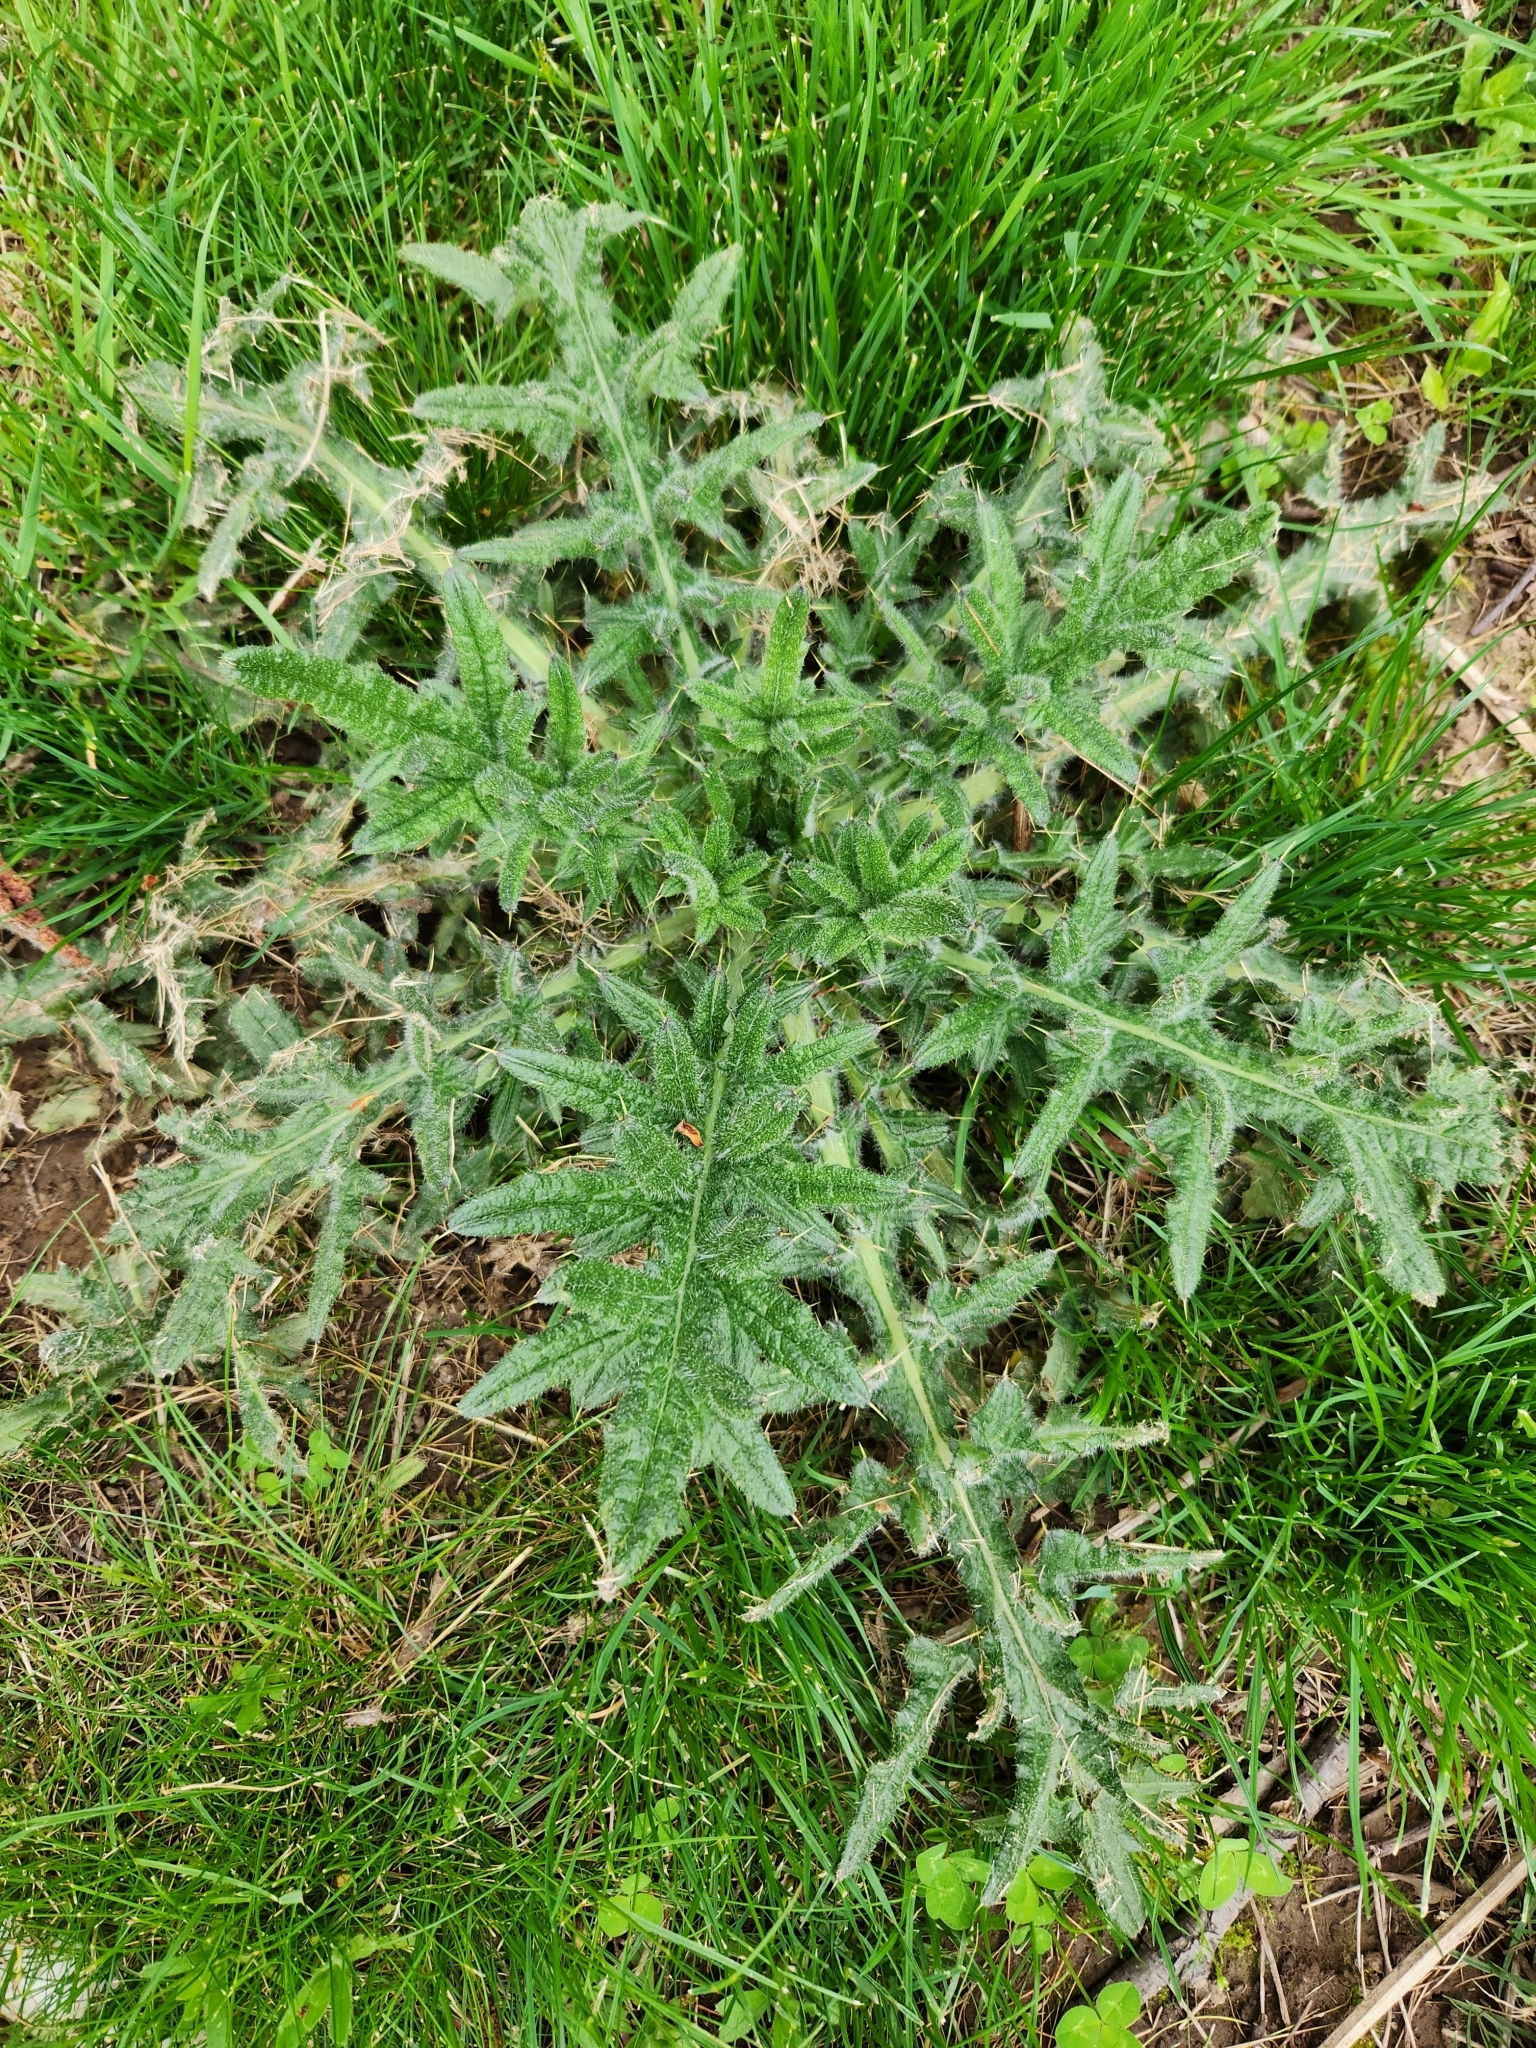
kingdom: Plantae
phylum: Tracheophyta
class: Magnoliopsida
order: Asterales
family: Asteraceae
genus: Cirsium
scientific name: Cirsium vulgare
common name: Bull thistle
